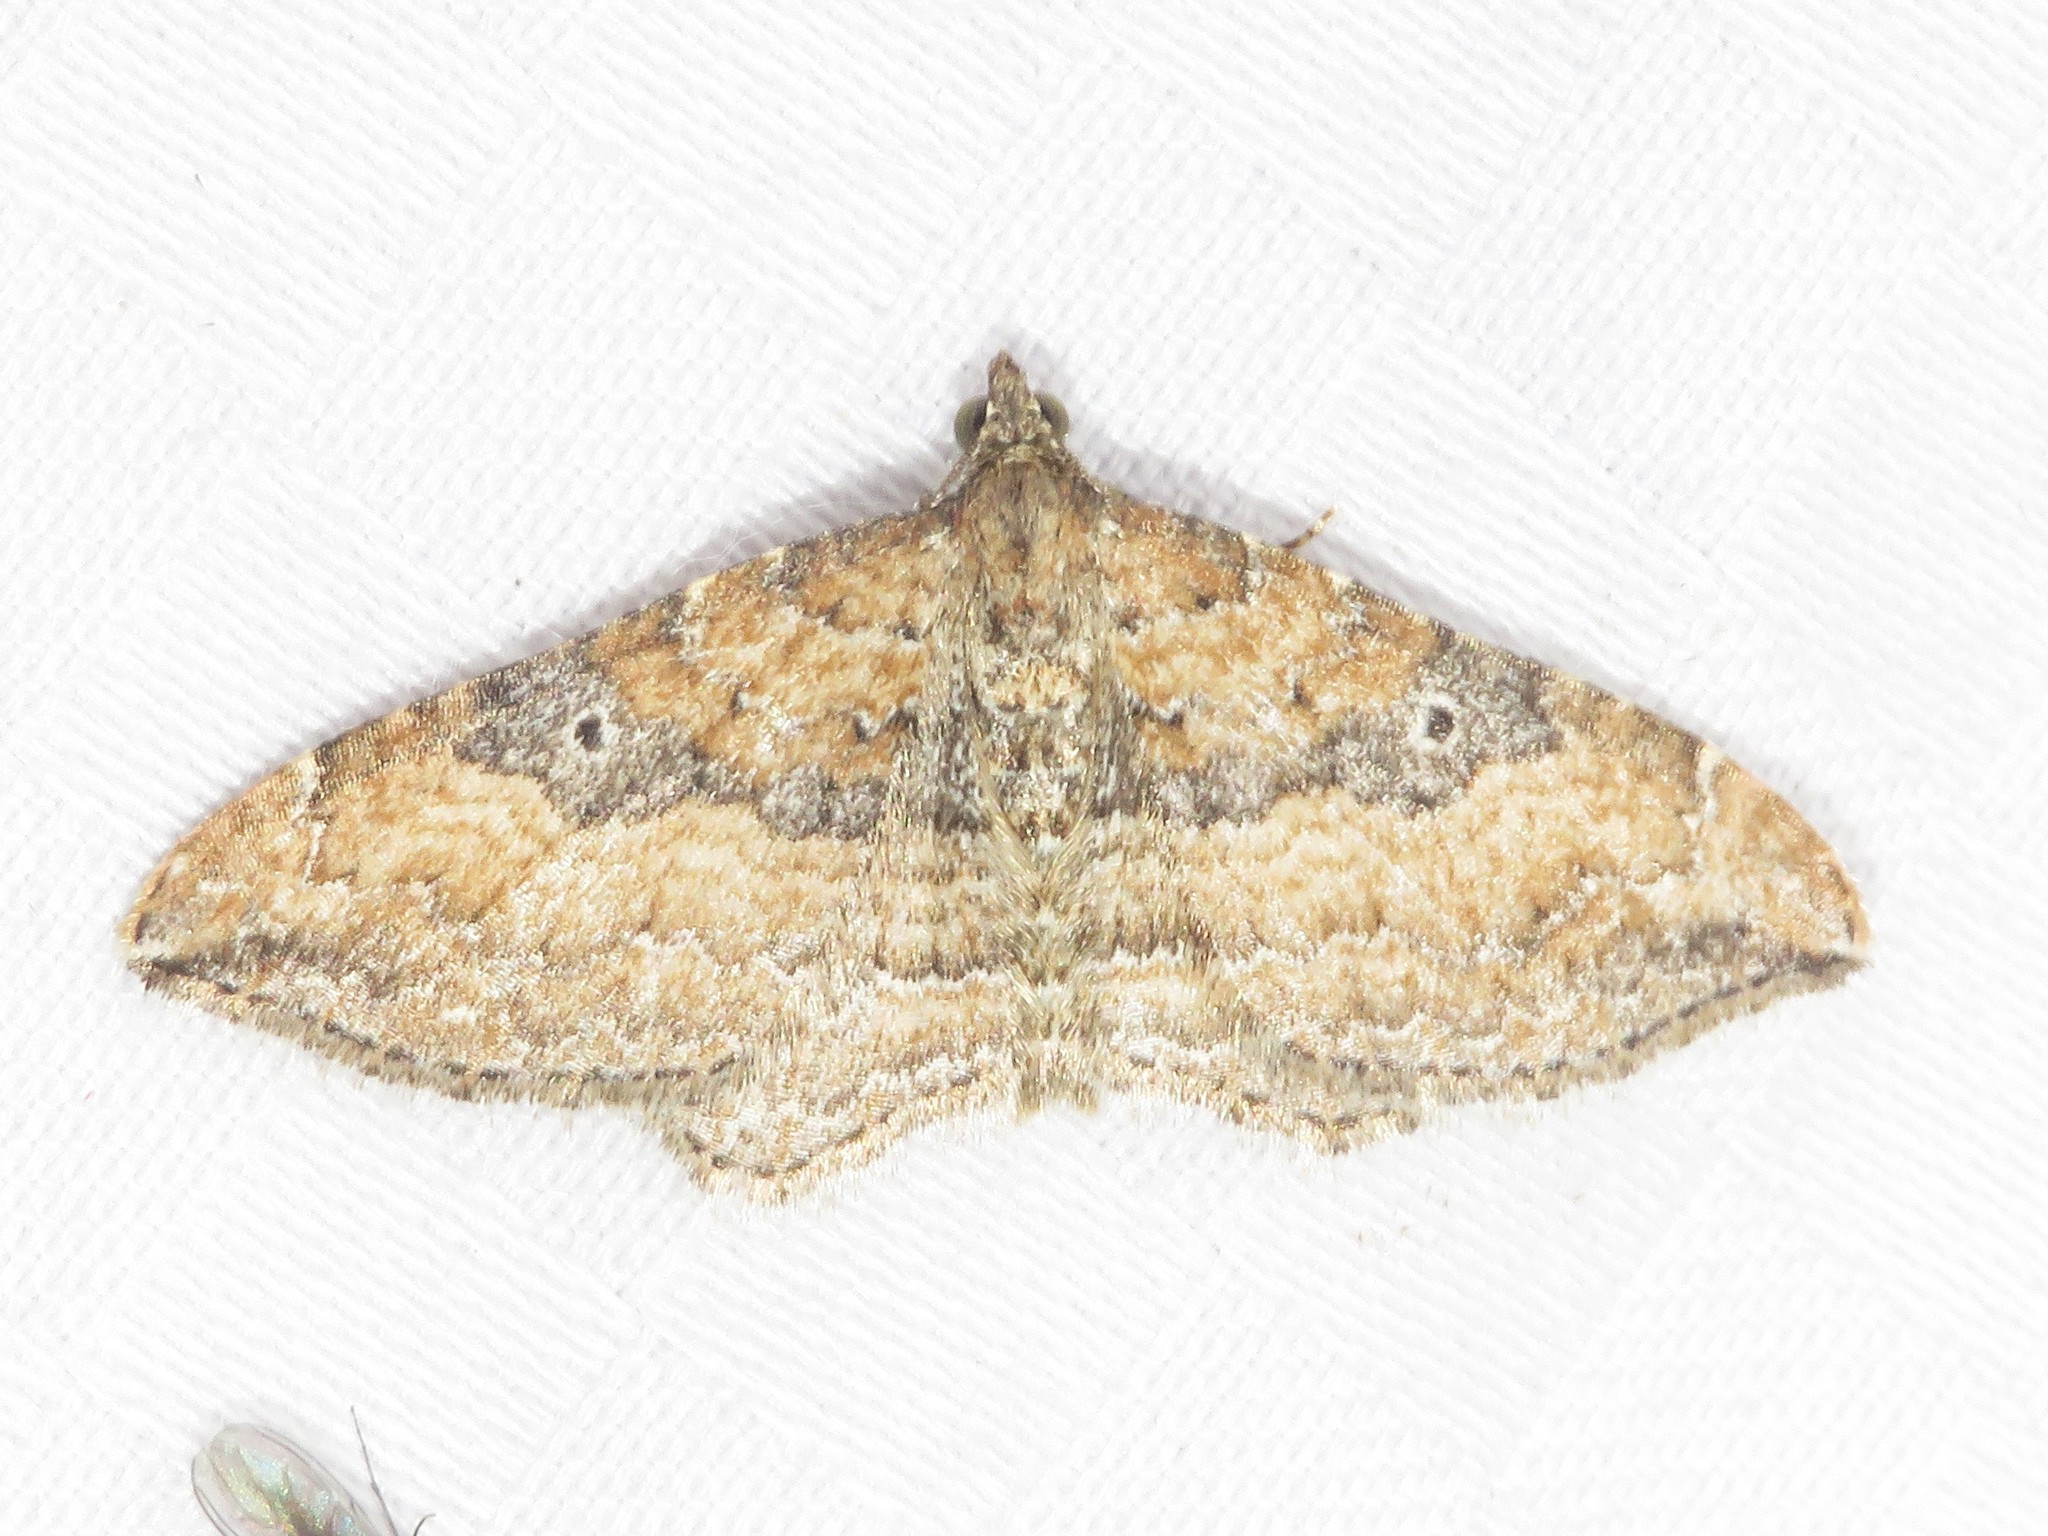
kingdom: Animalia
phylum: Arthropoda
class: Insecta
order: Lepidoptera
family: Geometridae
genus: Orthonama
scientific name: Orthonama obstipata
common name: The gem
